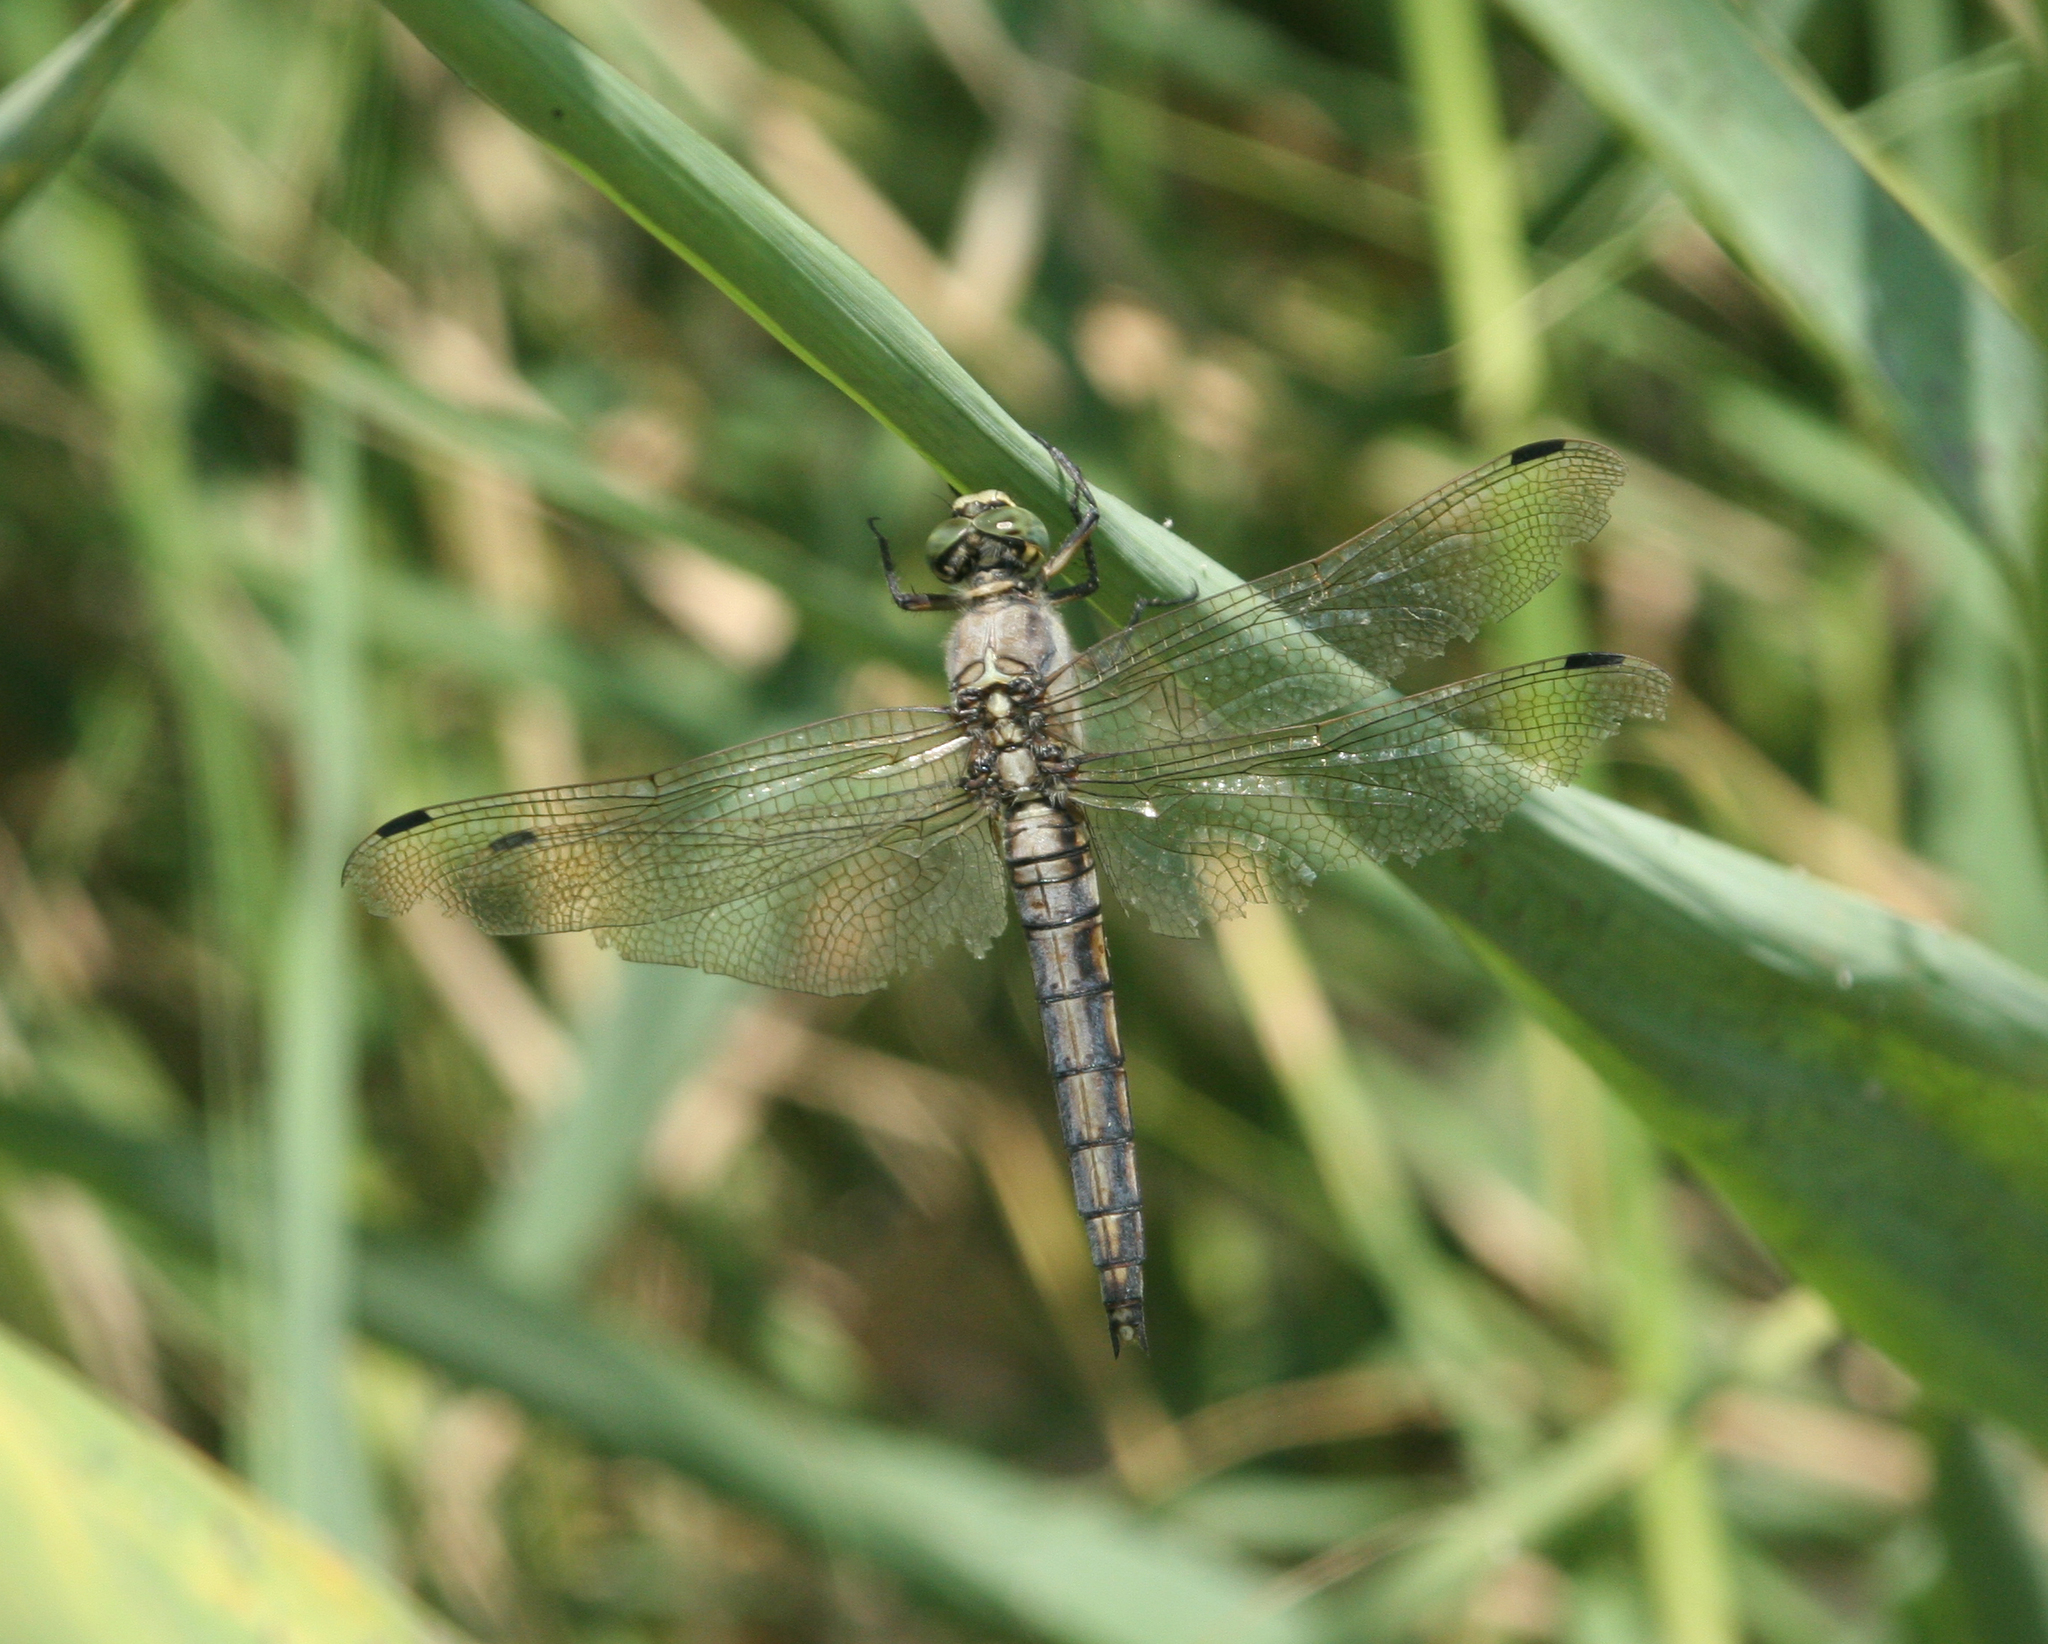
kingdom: Animalia
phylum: Arthropoda
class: Insecta
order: Odonata
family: Libellulidae
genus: Orthetrum
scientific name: Orthetrum cancellatum
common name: Black-tailed skimmer
